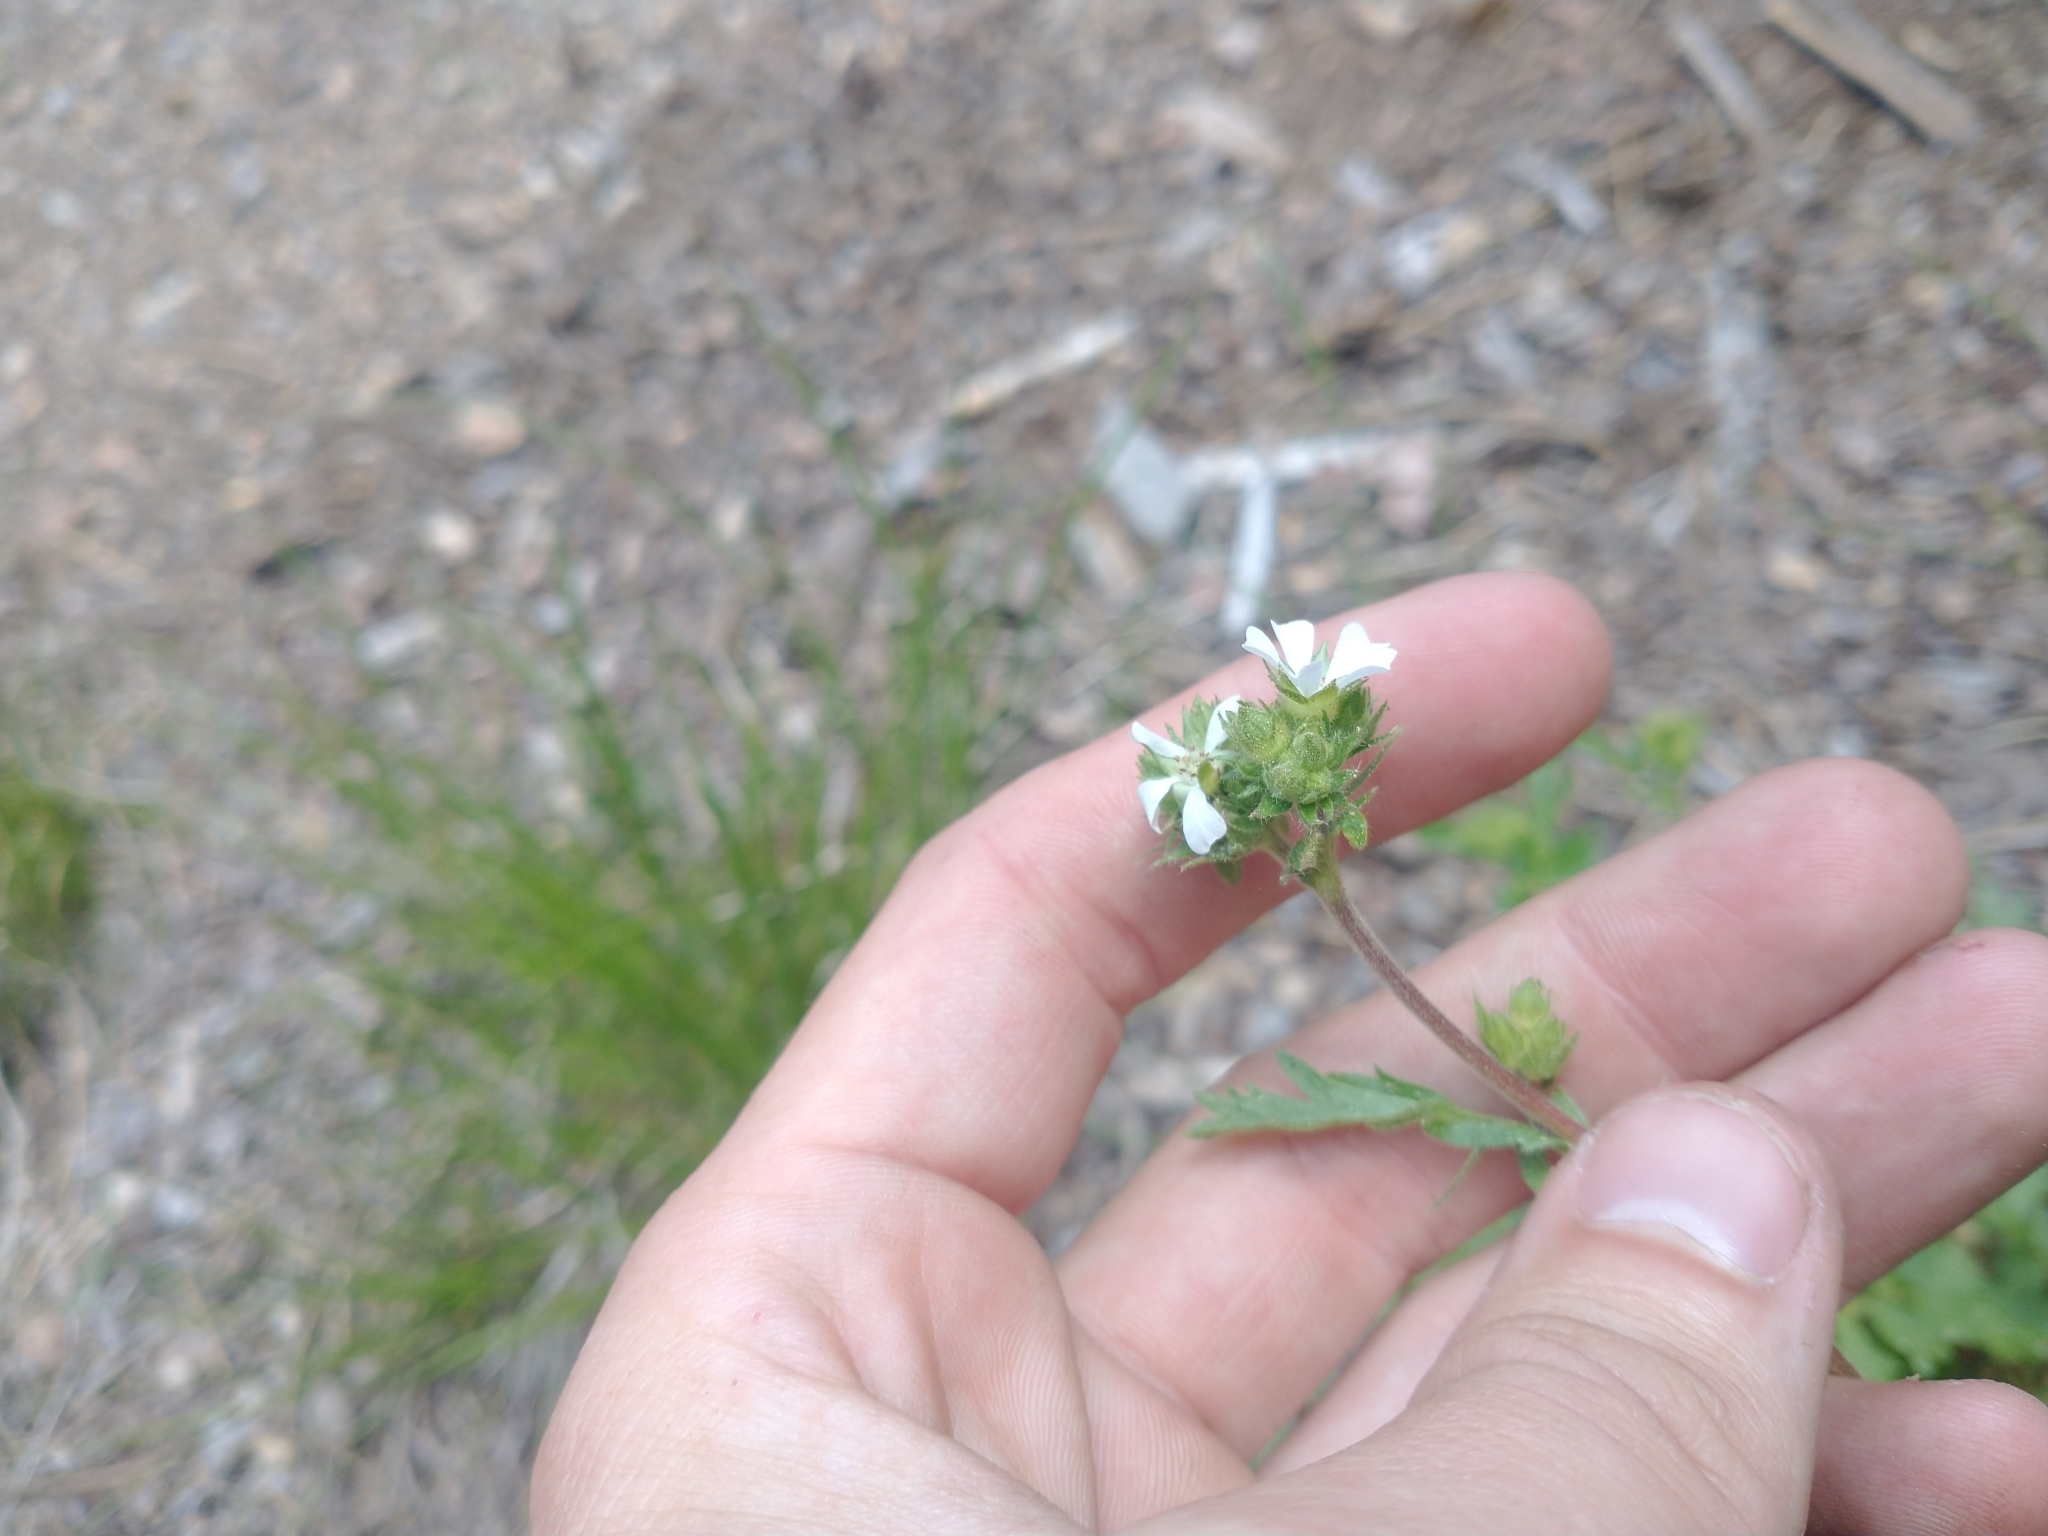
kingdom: Plantae
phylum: Tracheophyta
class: Magnoliopsida
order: Rosales
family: Rosaceae
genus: Potentilla
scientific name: Potentilla douglasii
